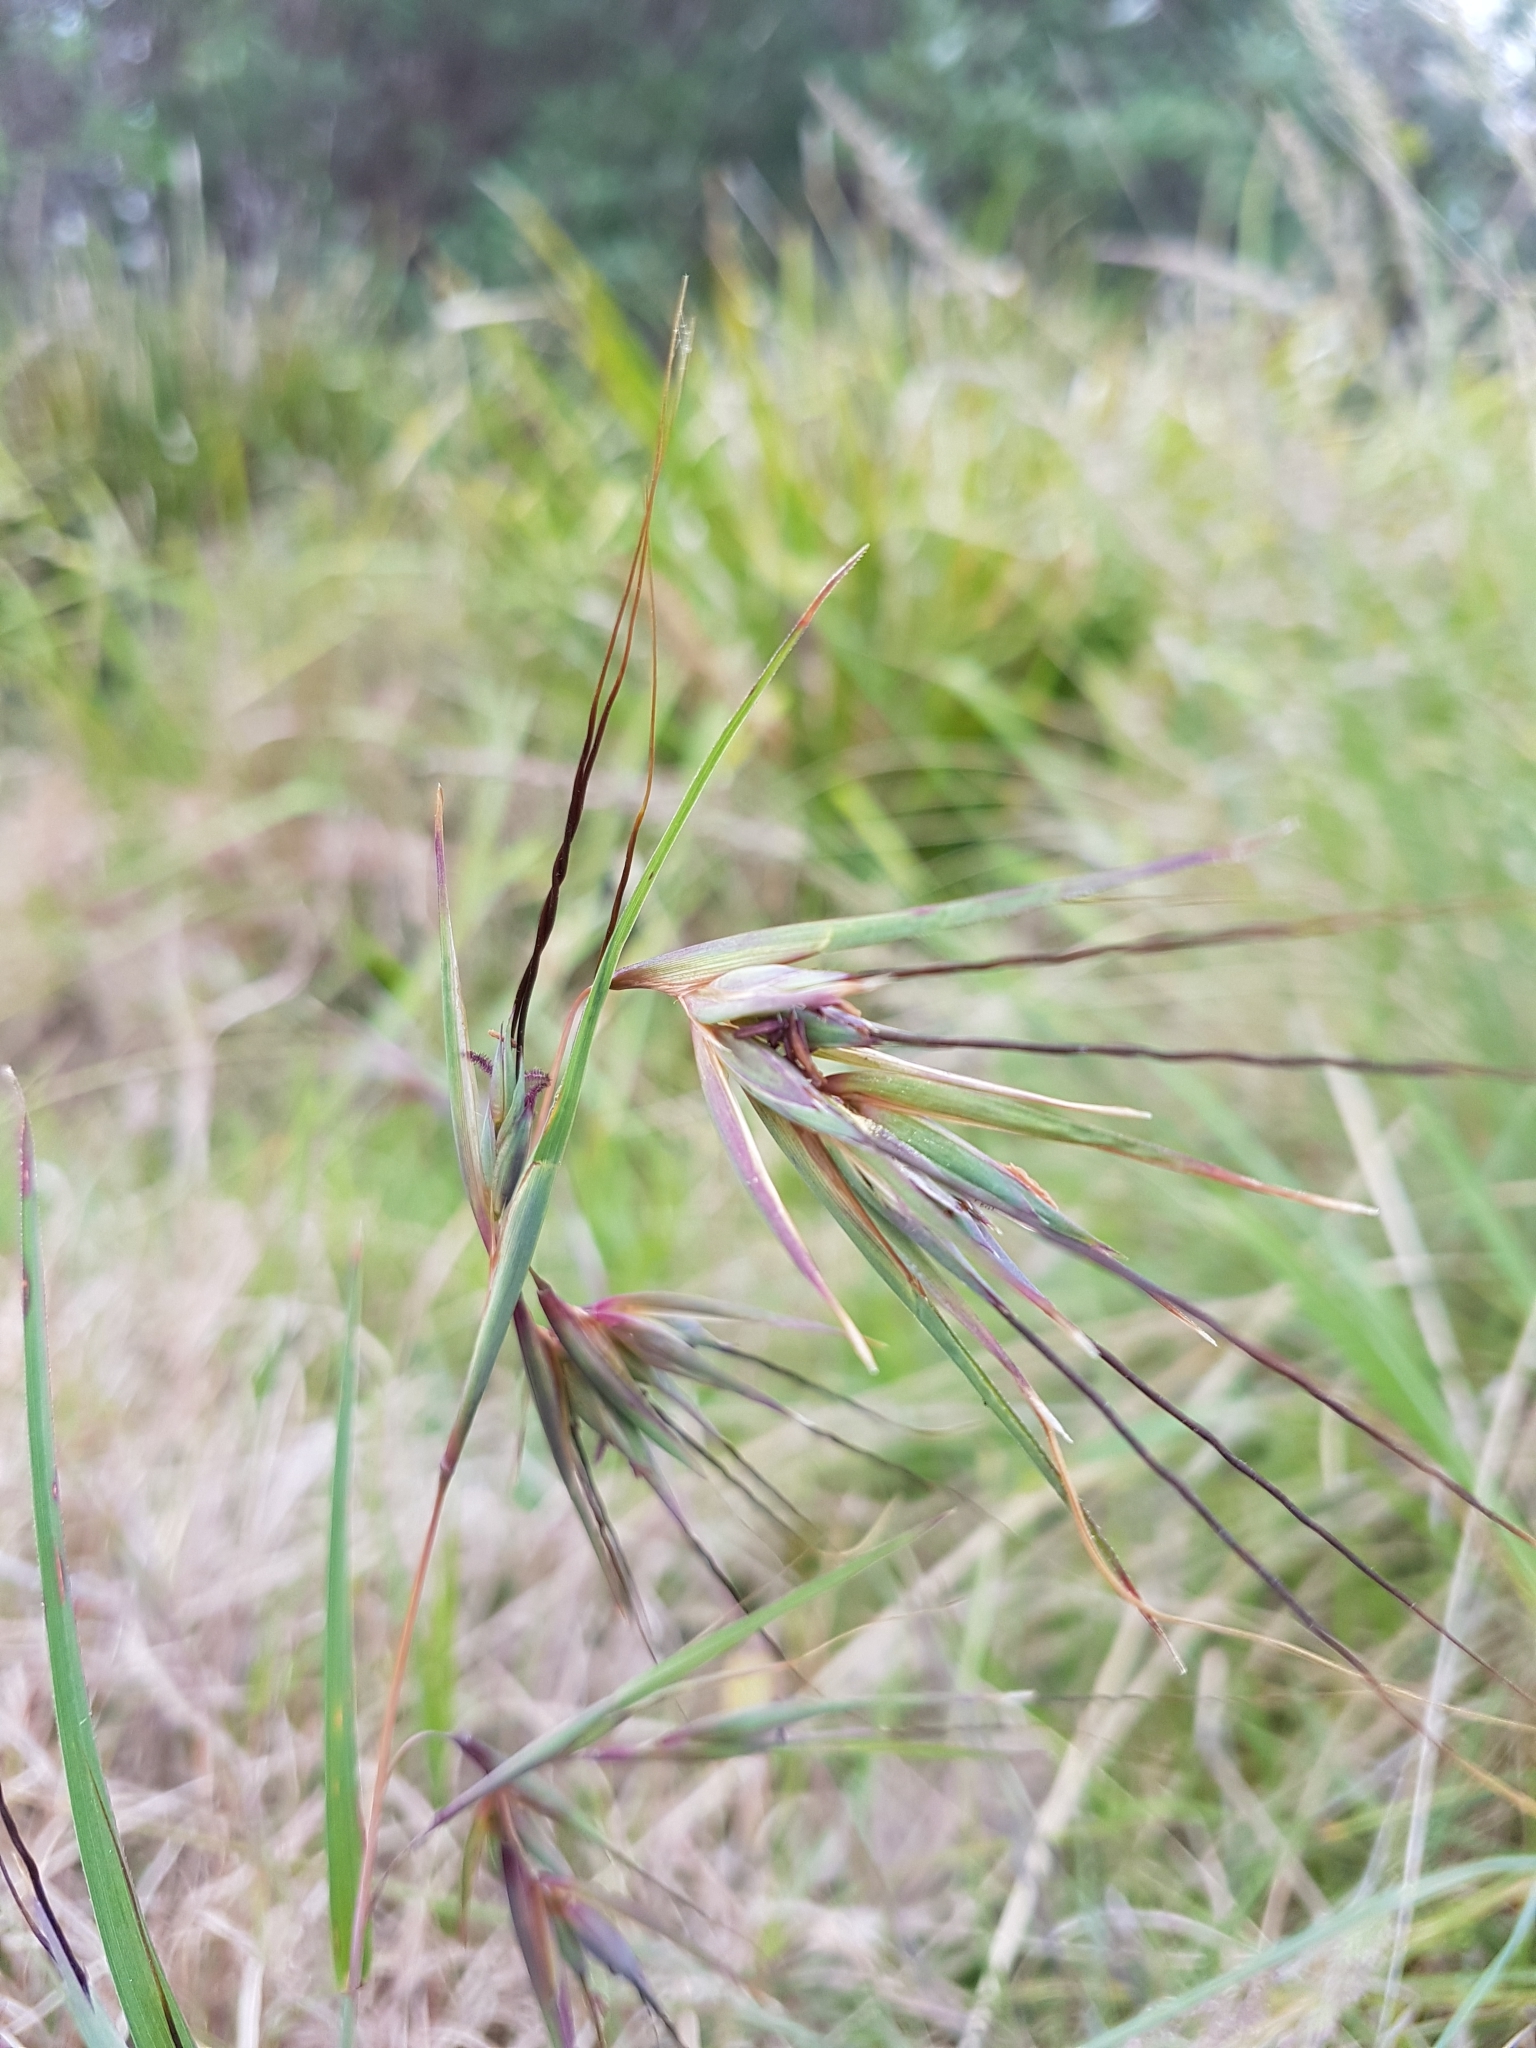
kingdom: Plantae
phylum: Tracheophyta
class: Liliopsida
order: Poales
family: Poaceae
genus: Themeda
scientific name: Themeda triandra
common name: Kangaroo grass
